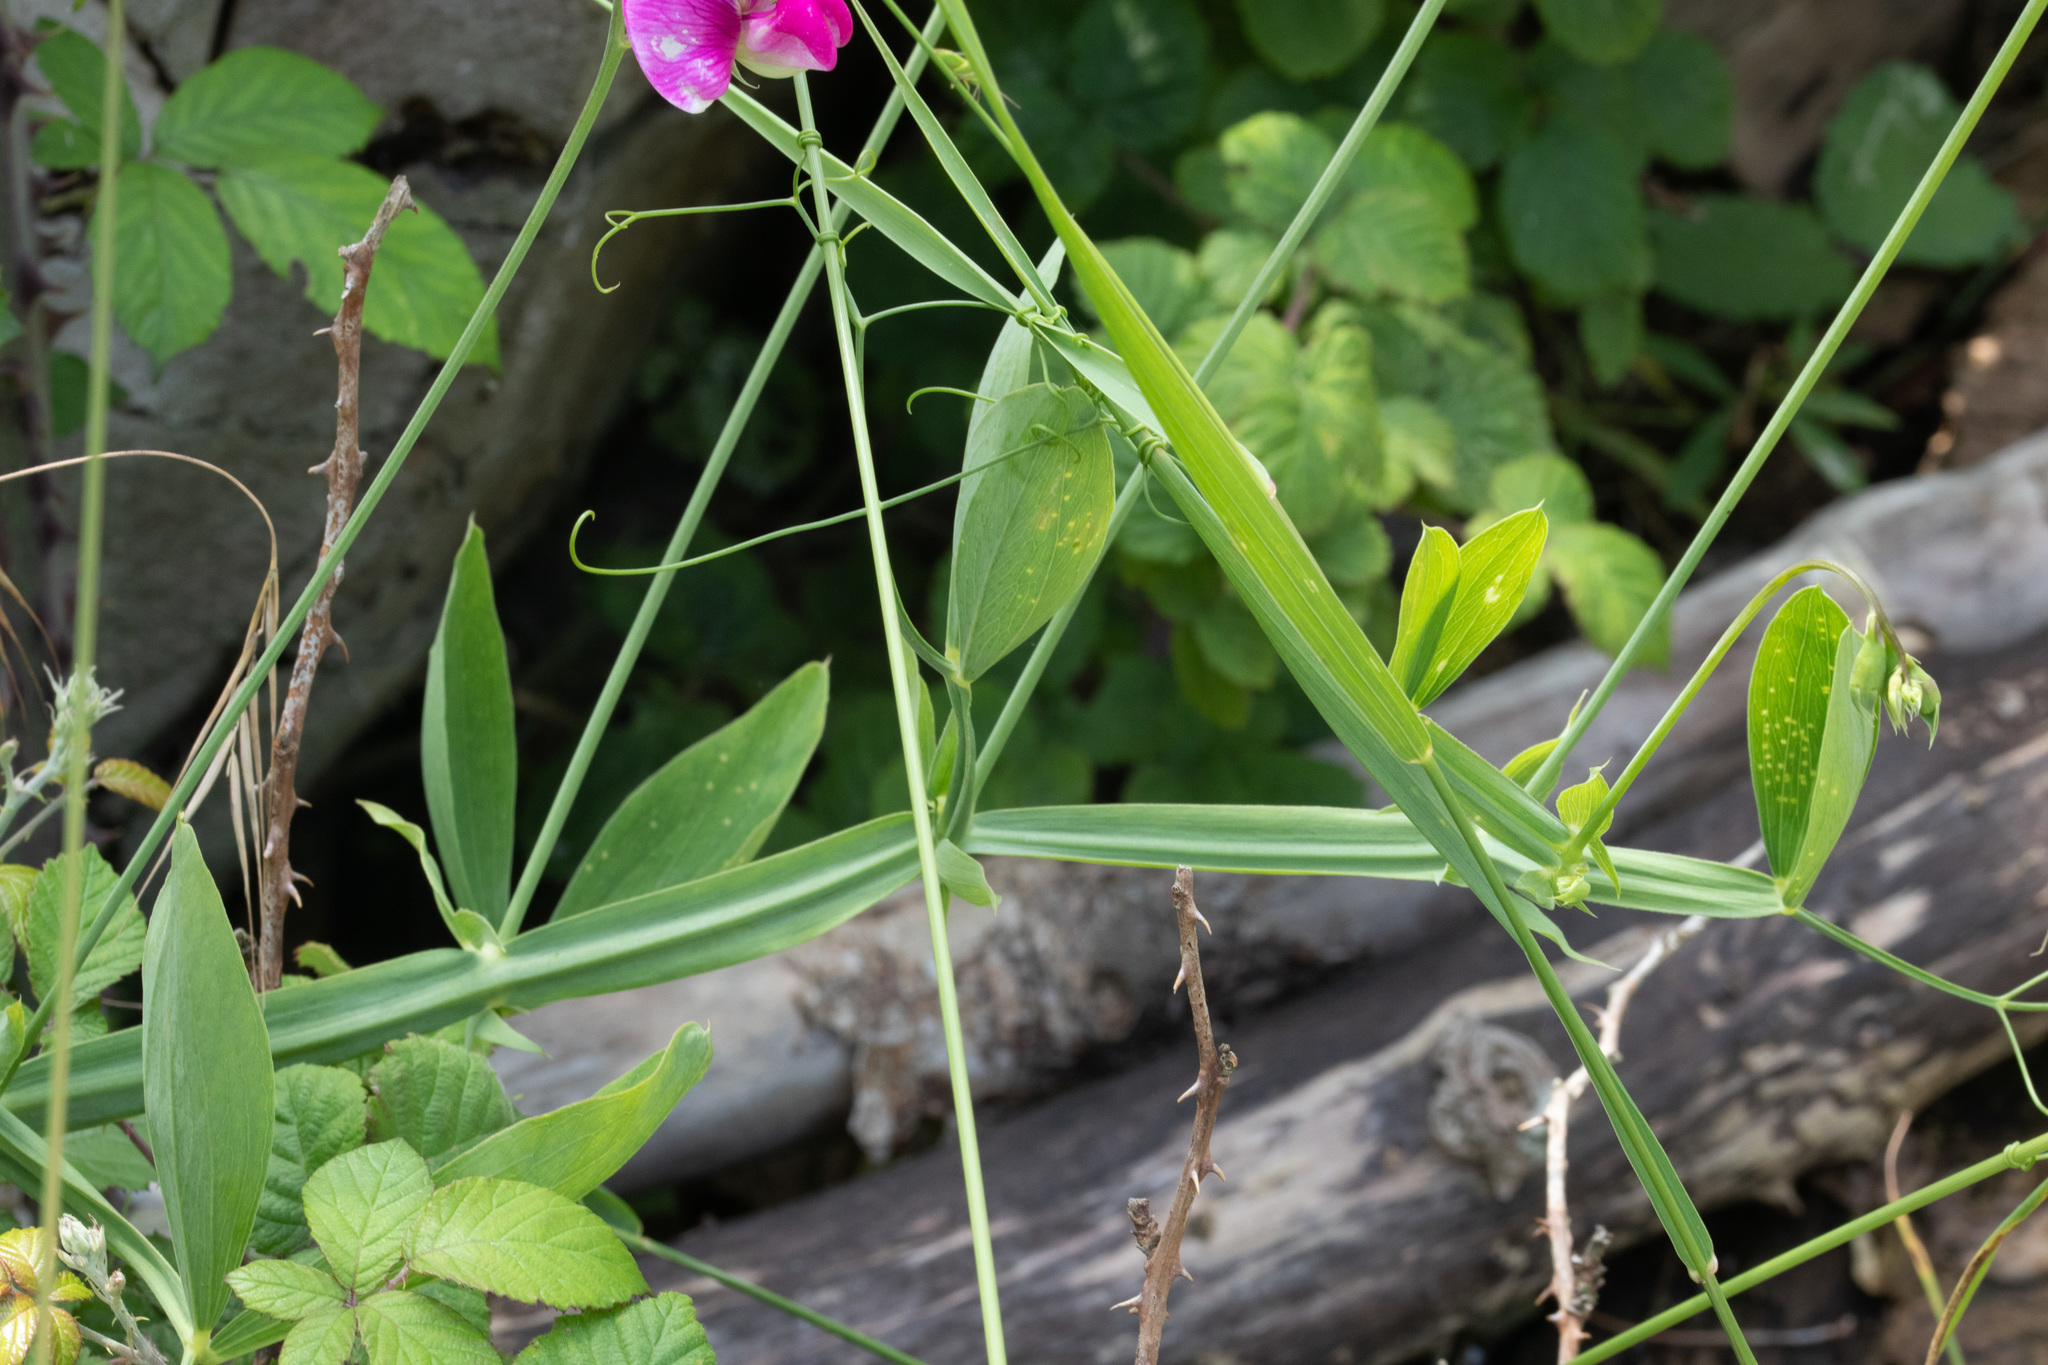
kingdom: Plantae
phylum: Tracheophyta
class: Magnoliopsida
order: Fabales
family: Fabaceae
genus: Lathyrus
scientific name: Lathyrus latifolius
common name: Perennial pea
